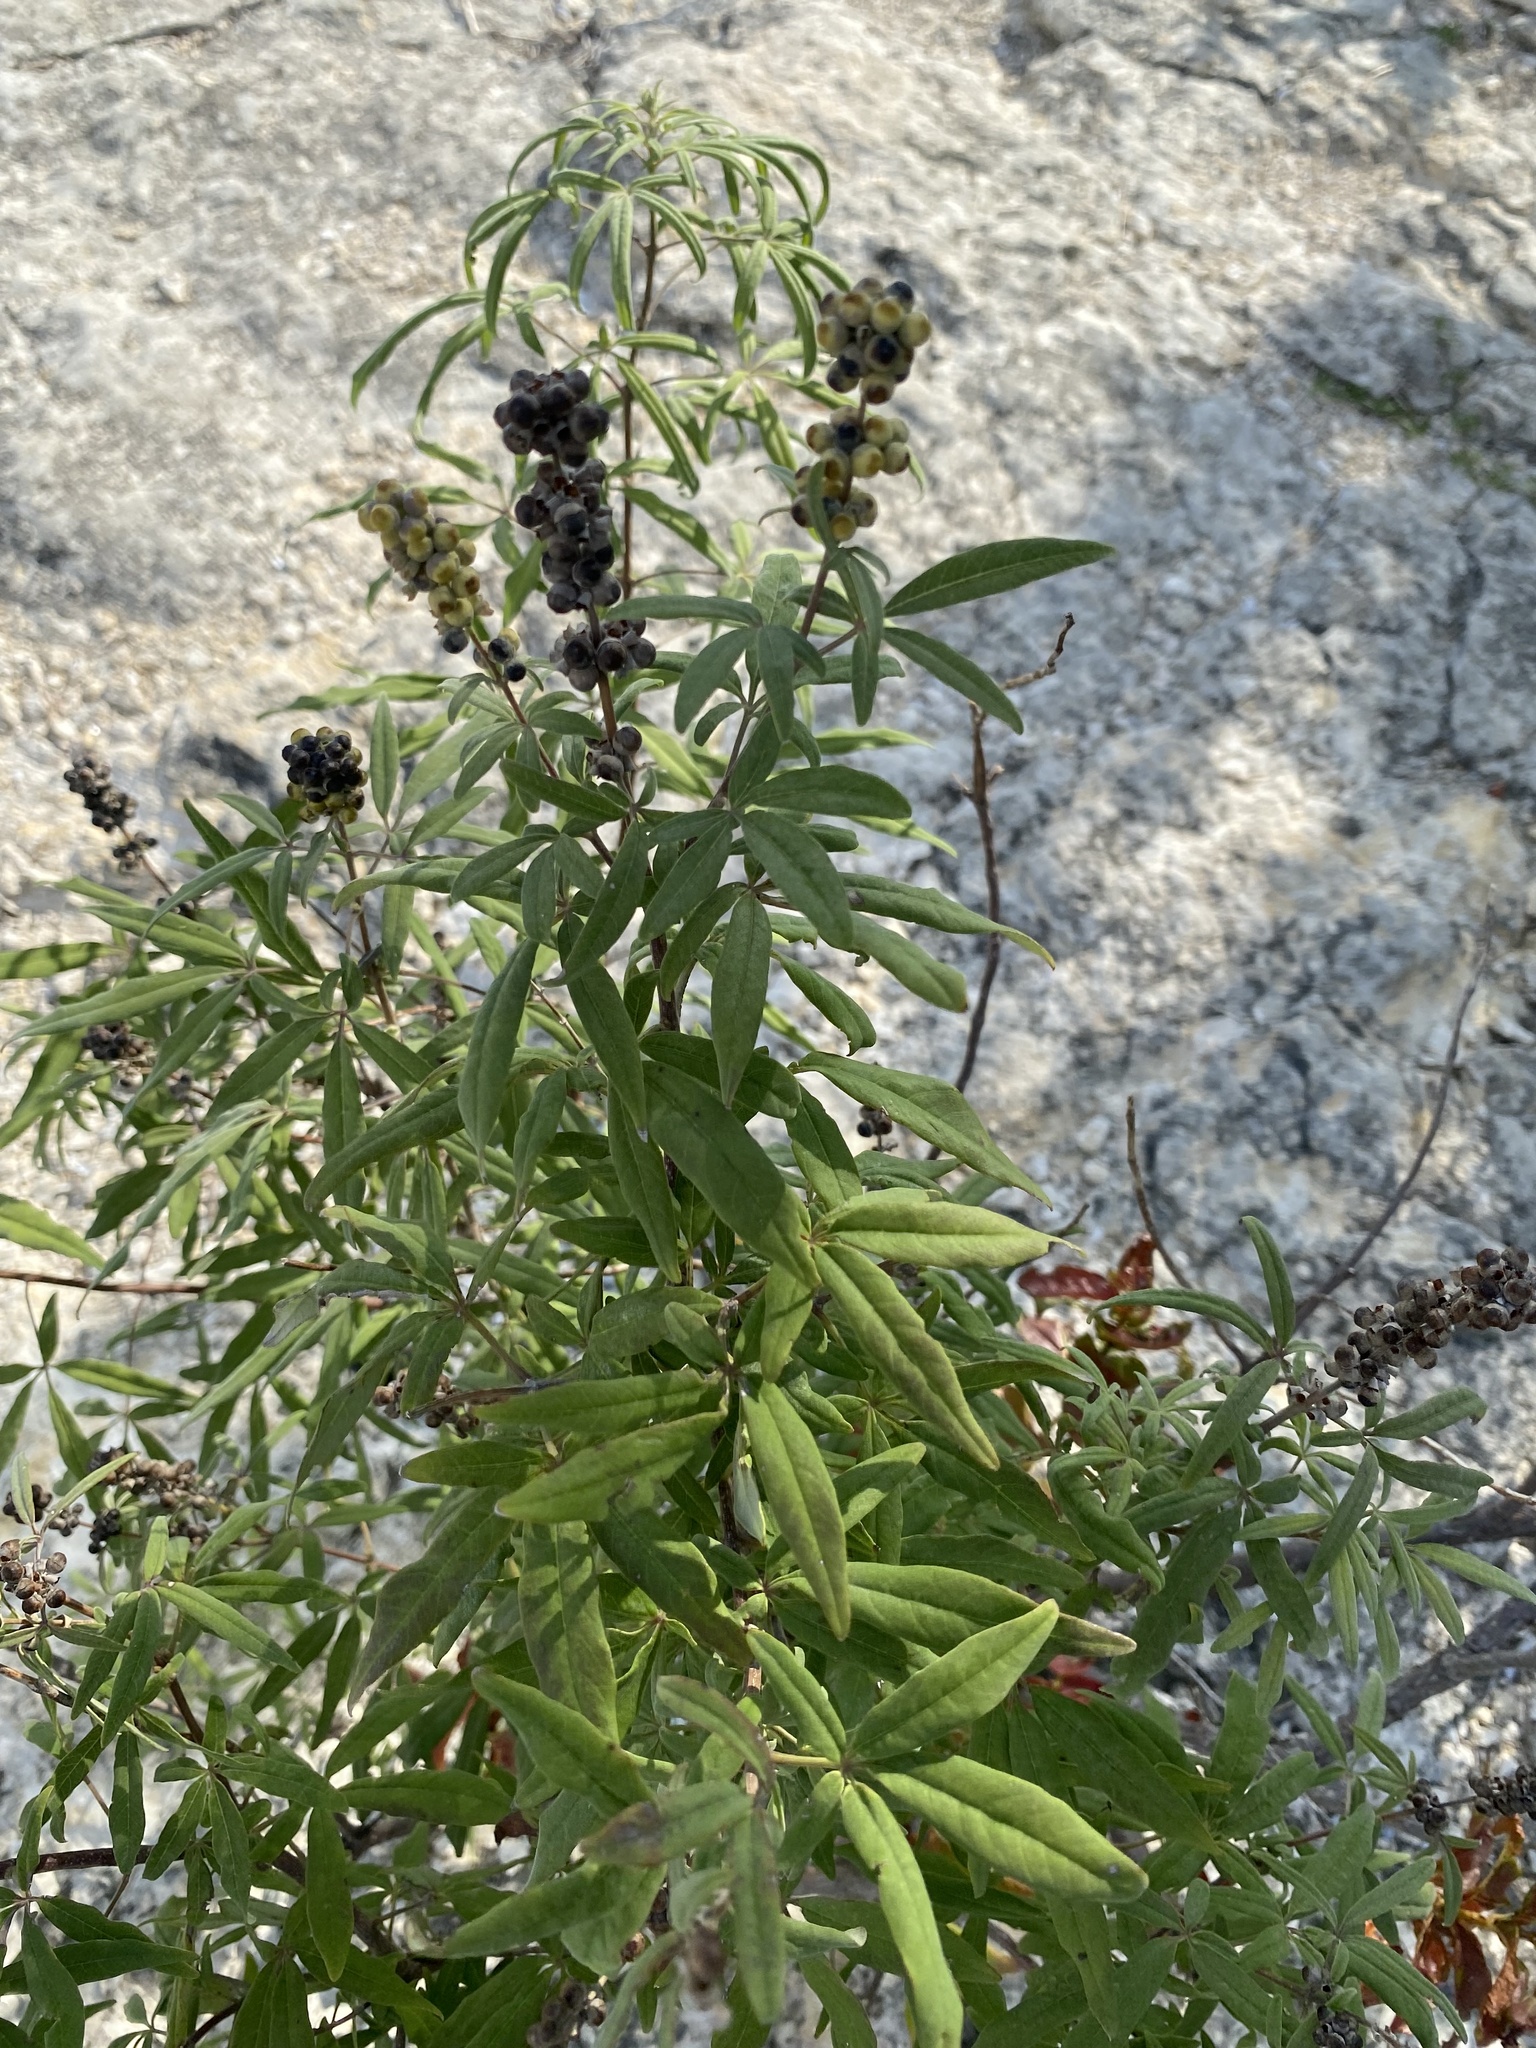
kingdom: Plantae
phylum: Tracheophyta
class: Magnoliopsida
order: Lamiales
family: Lamiaceae
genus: Vitex
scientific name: Vitex agnus-castus
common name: Chasteberry
